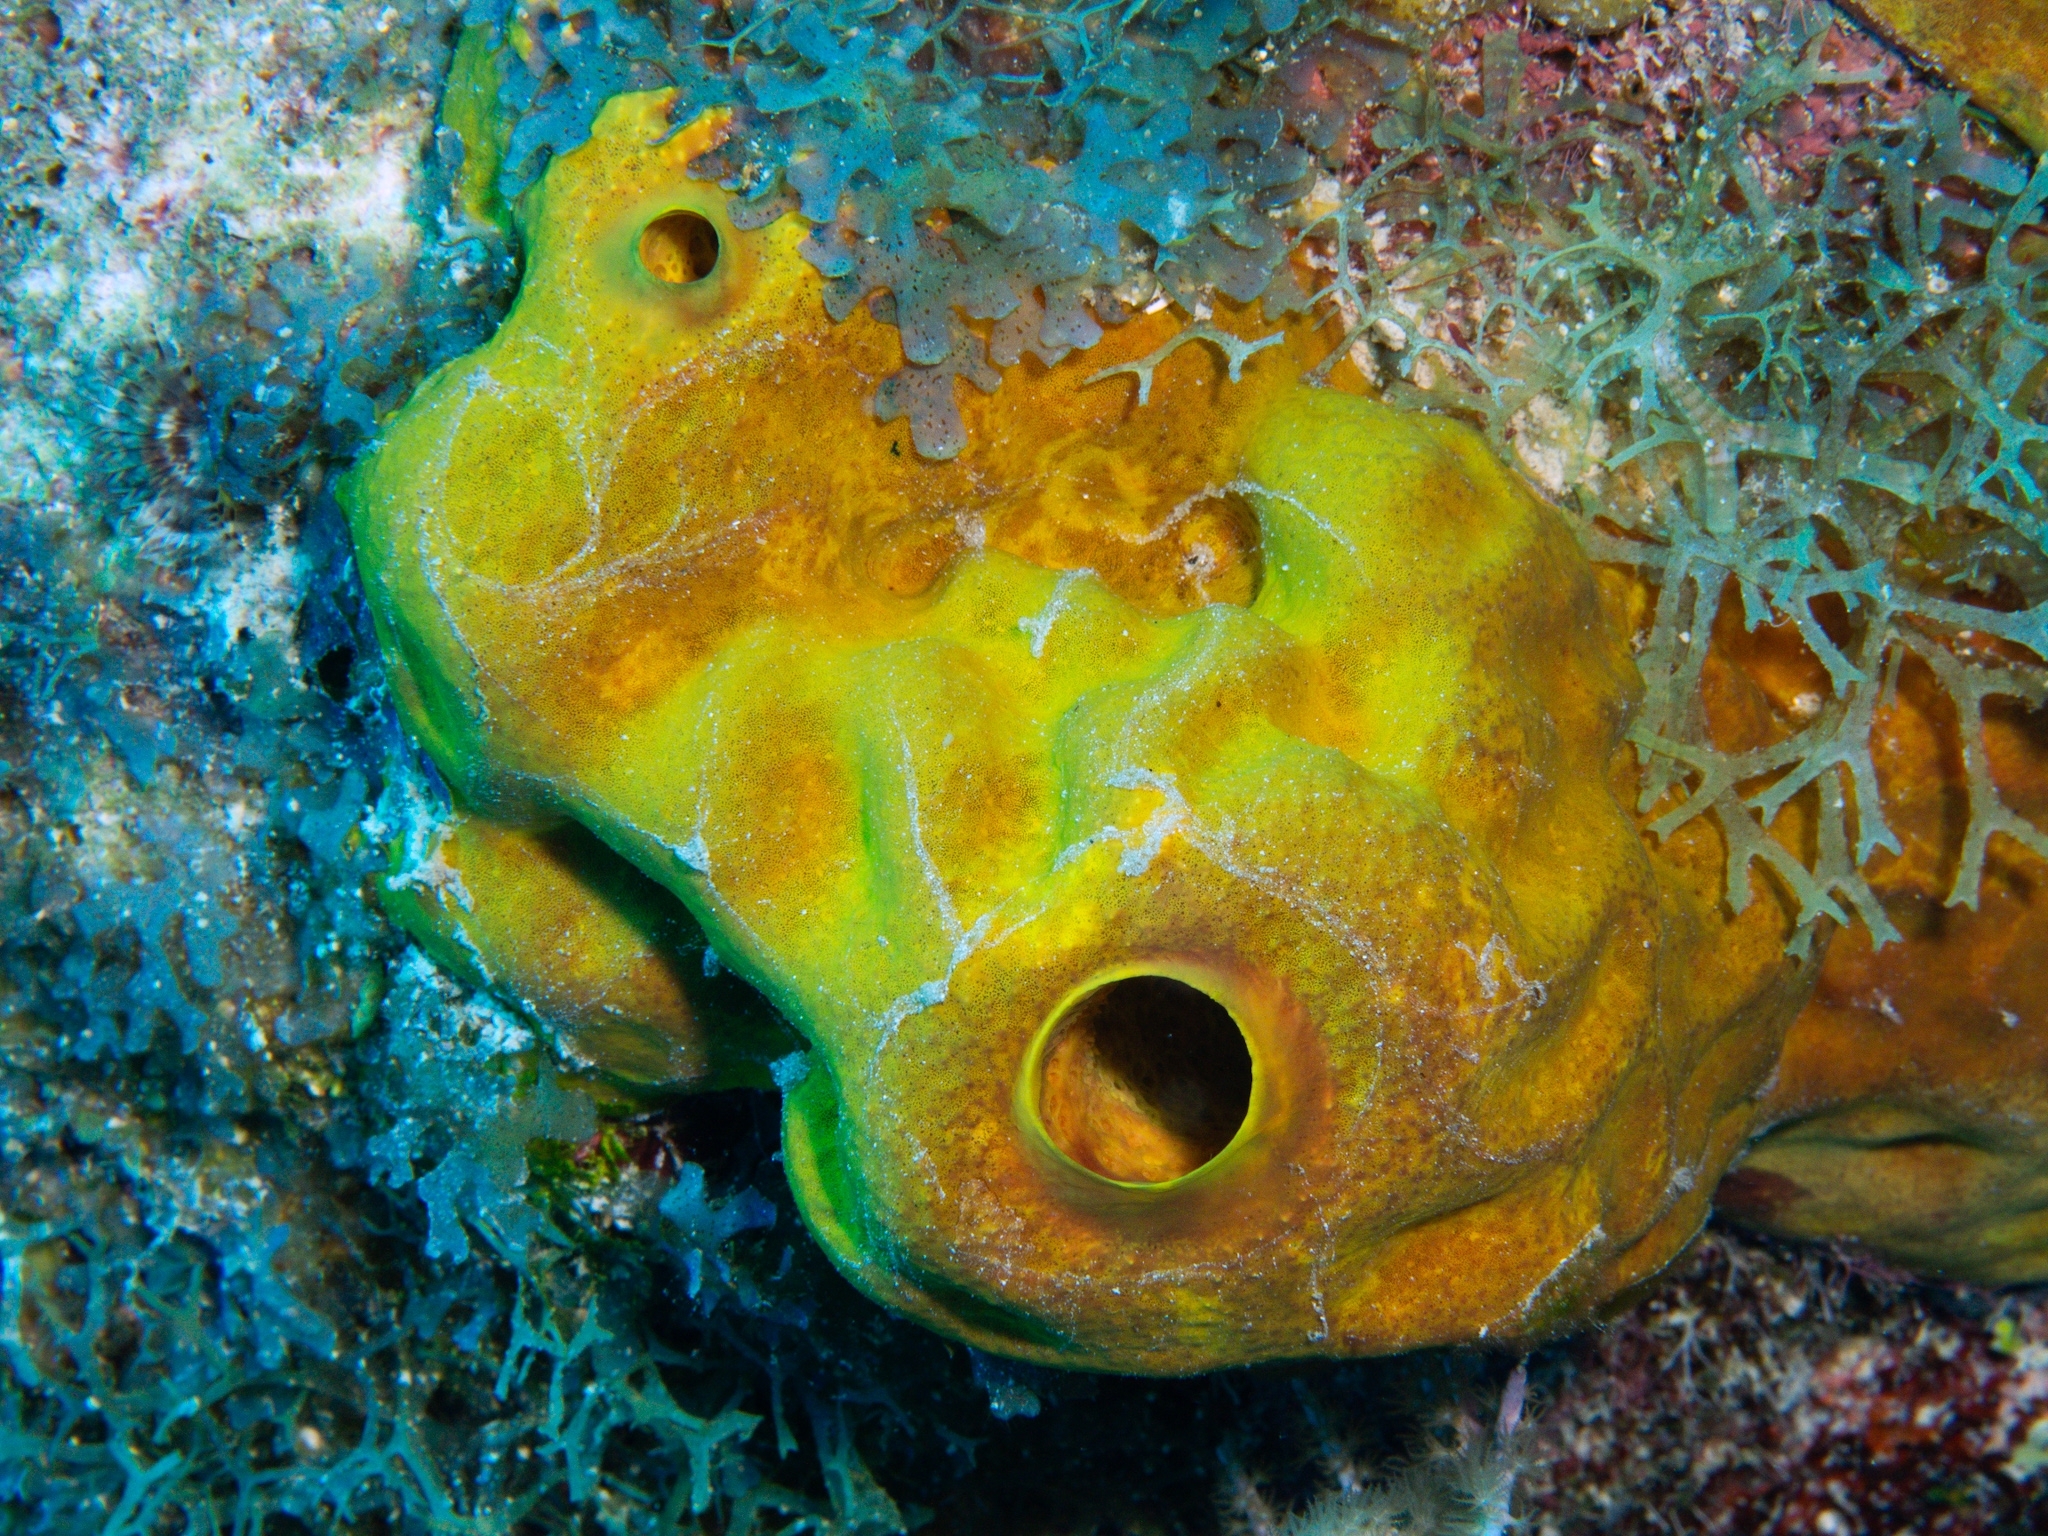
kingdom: Animalia
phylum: Porifera
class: Demospongiae
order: Verongiida
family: Aplysinidae
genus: Aplysina
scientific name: Aplysina fistularis
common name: Candle sponge
